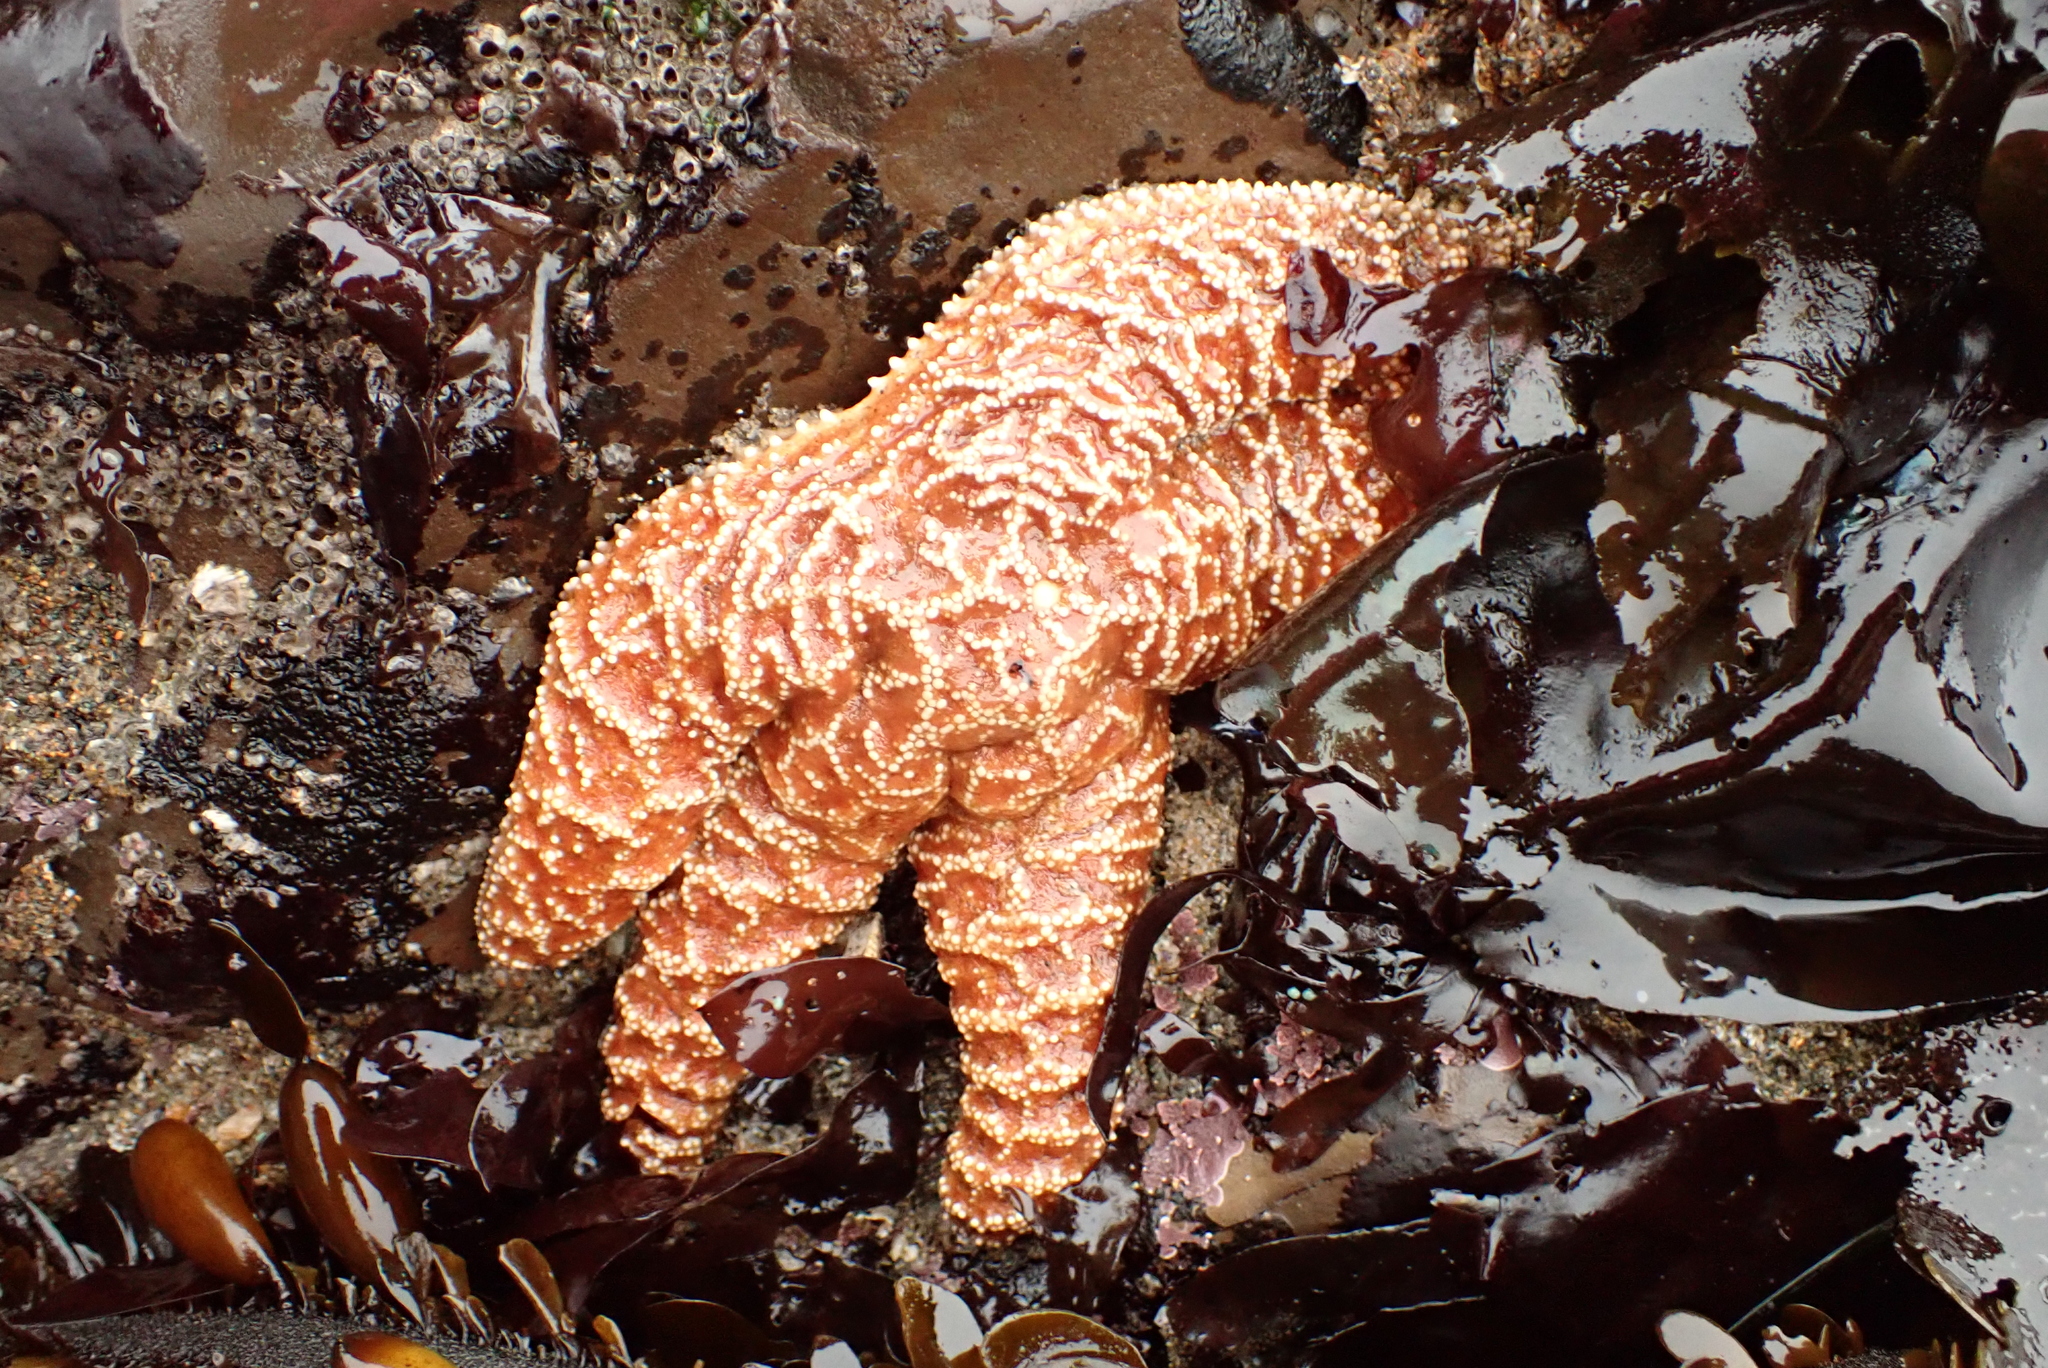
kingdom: Animalia
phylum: Echinodermata
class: Asteroidea
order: Forcipulatida
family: Asteriidae
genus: Pisaster
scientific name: Pisaster ochraceus
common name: Ochre stars
